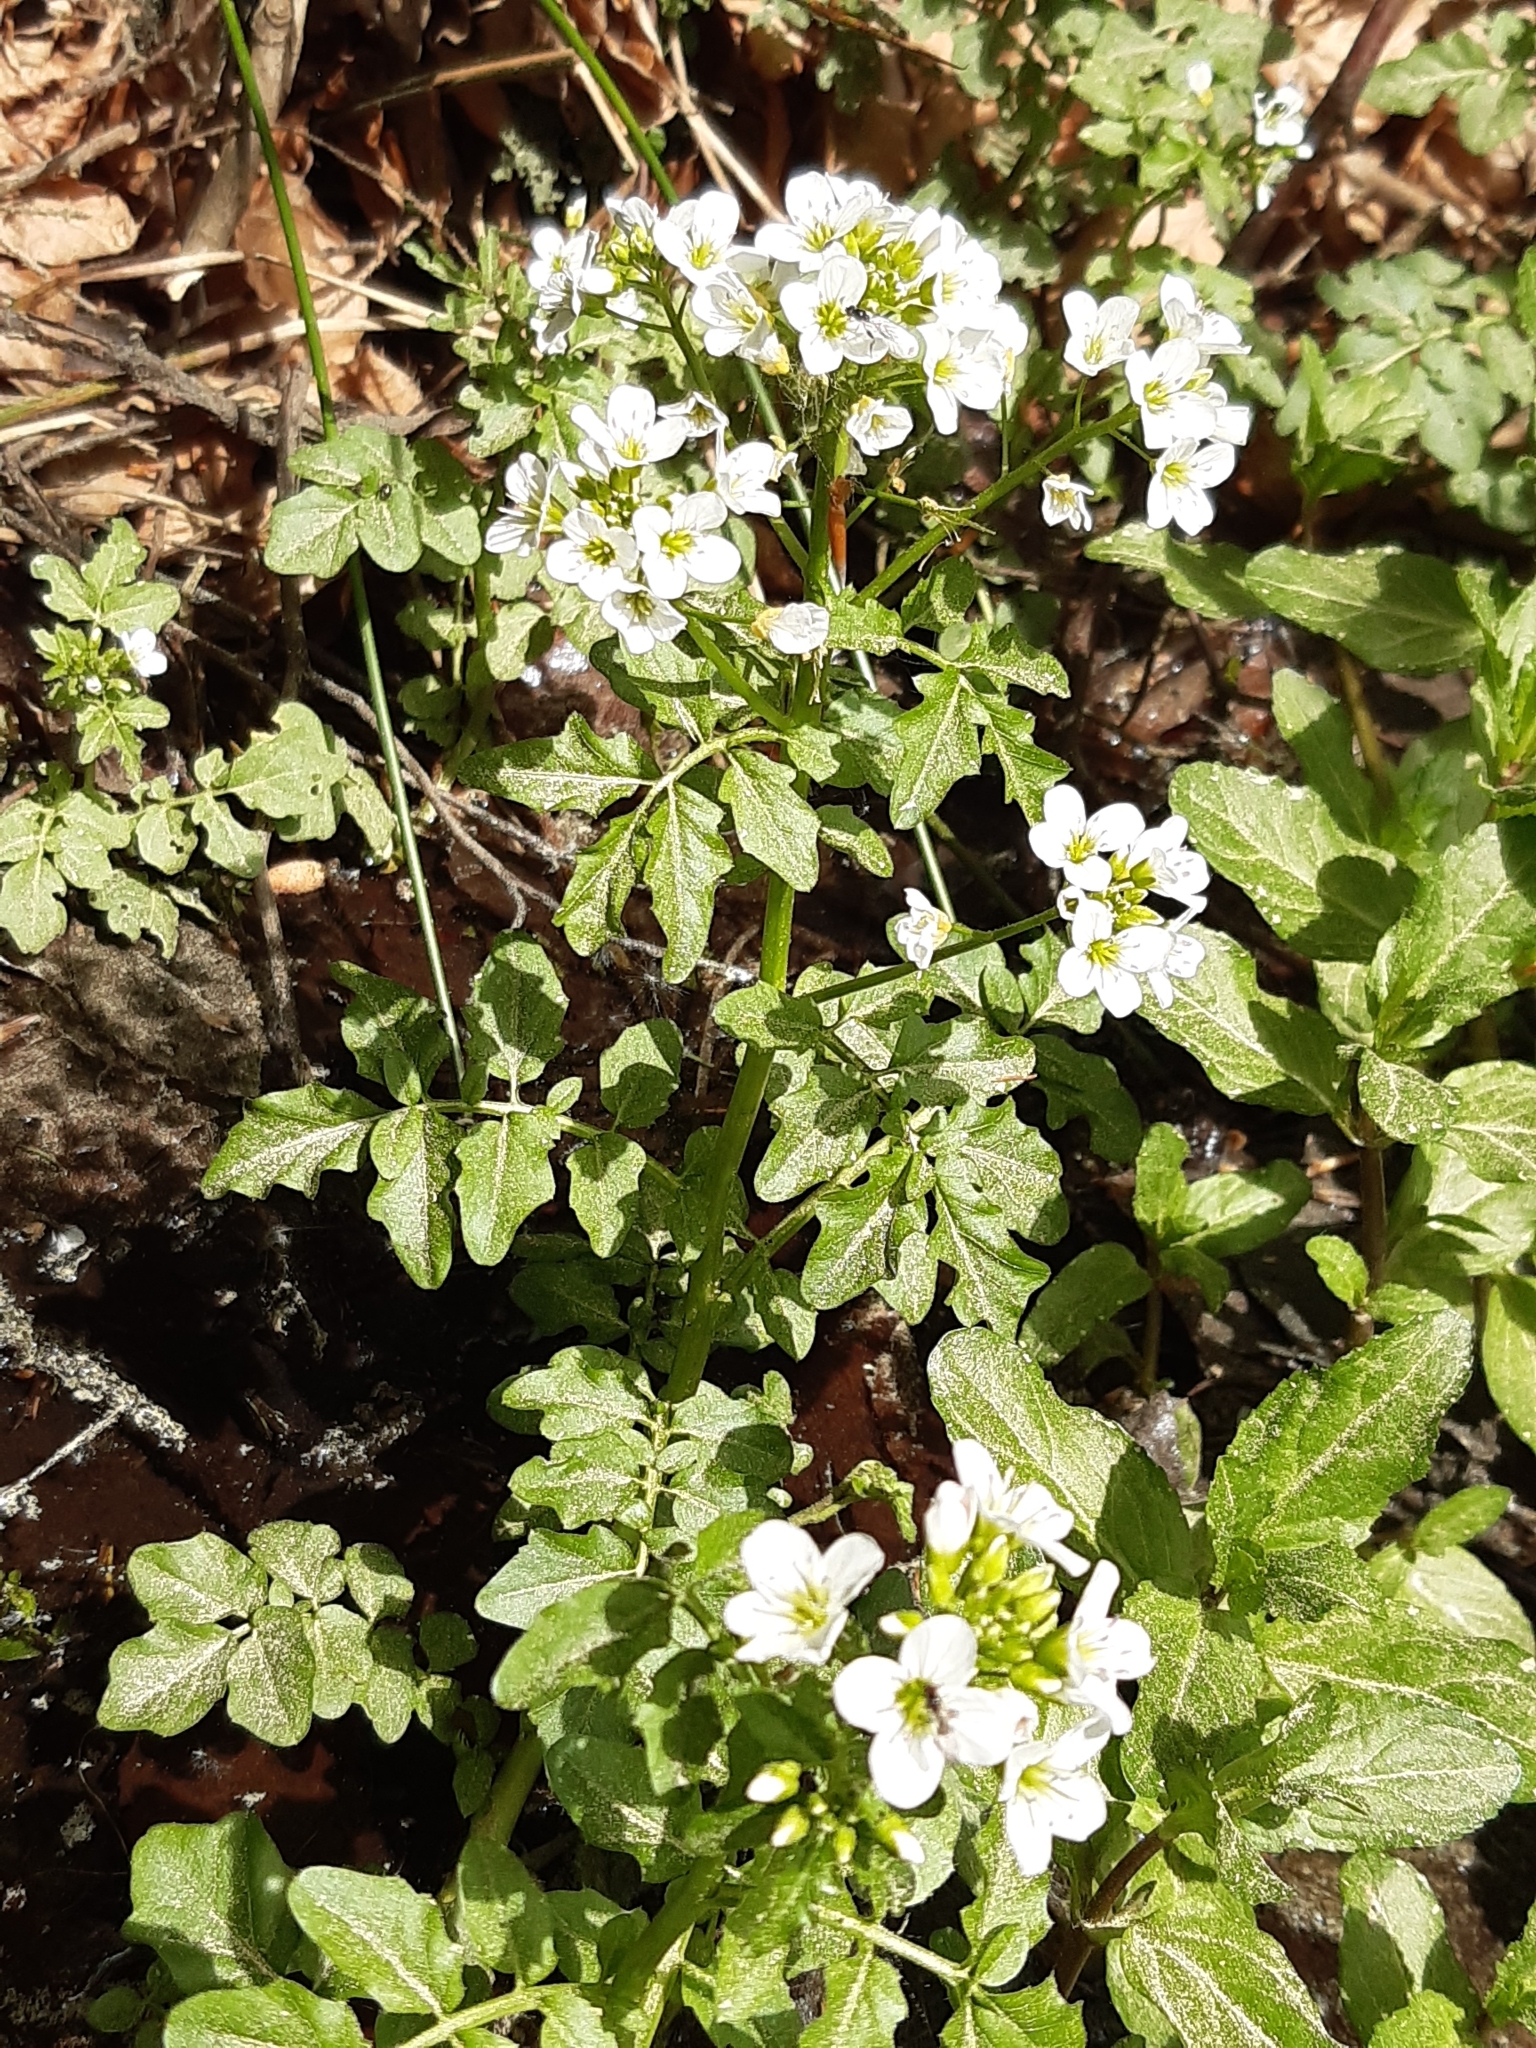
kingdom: Plantae
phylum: Tracheophyta
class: Magnoliopsida
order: Brassicales
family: Brassicaceae
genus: Cardamine
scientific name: Cardamine amara
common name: Large bitter-cress
